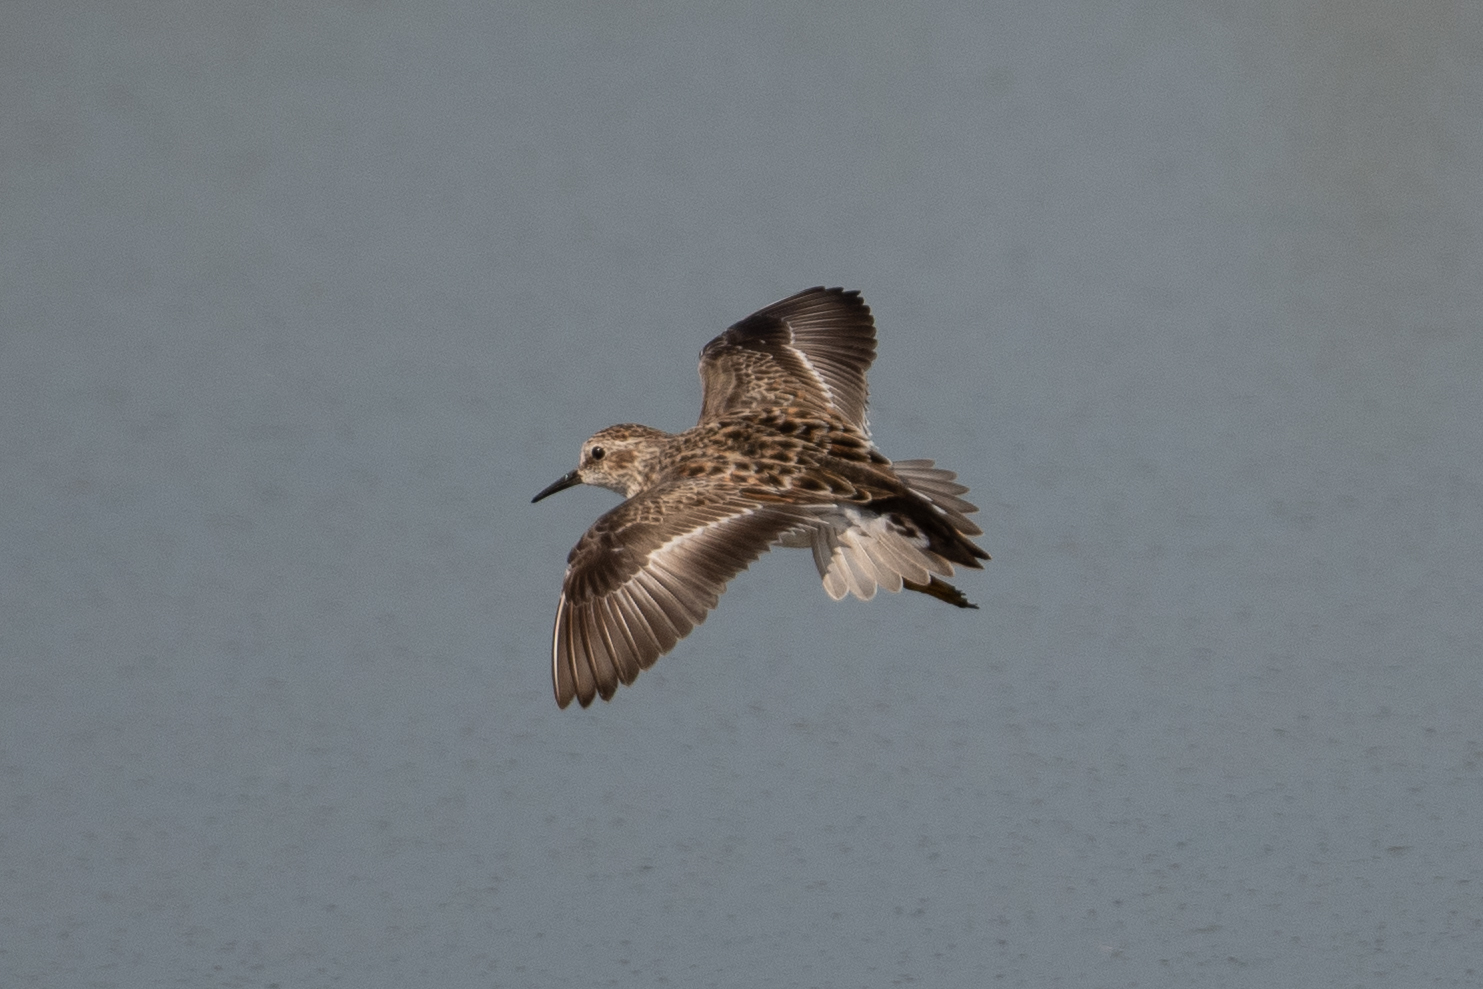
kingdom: Animalia
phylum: Chordata
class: Aves
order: Charadriiformes
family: Scolopacidae
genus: Calidris
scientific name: Calidris minutilla
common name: Least sandpiper
